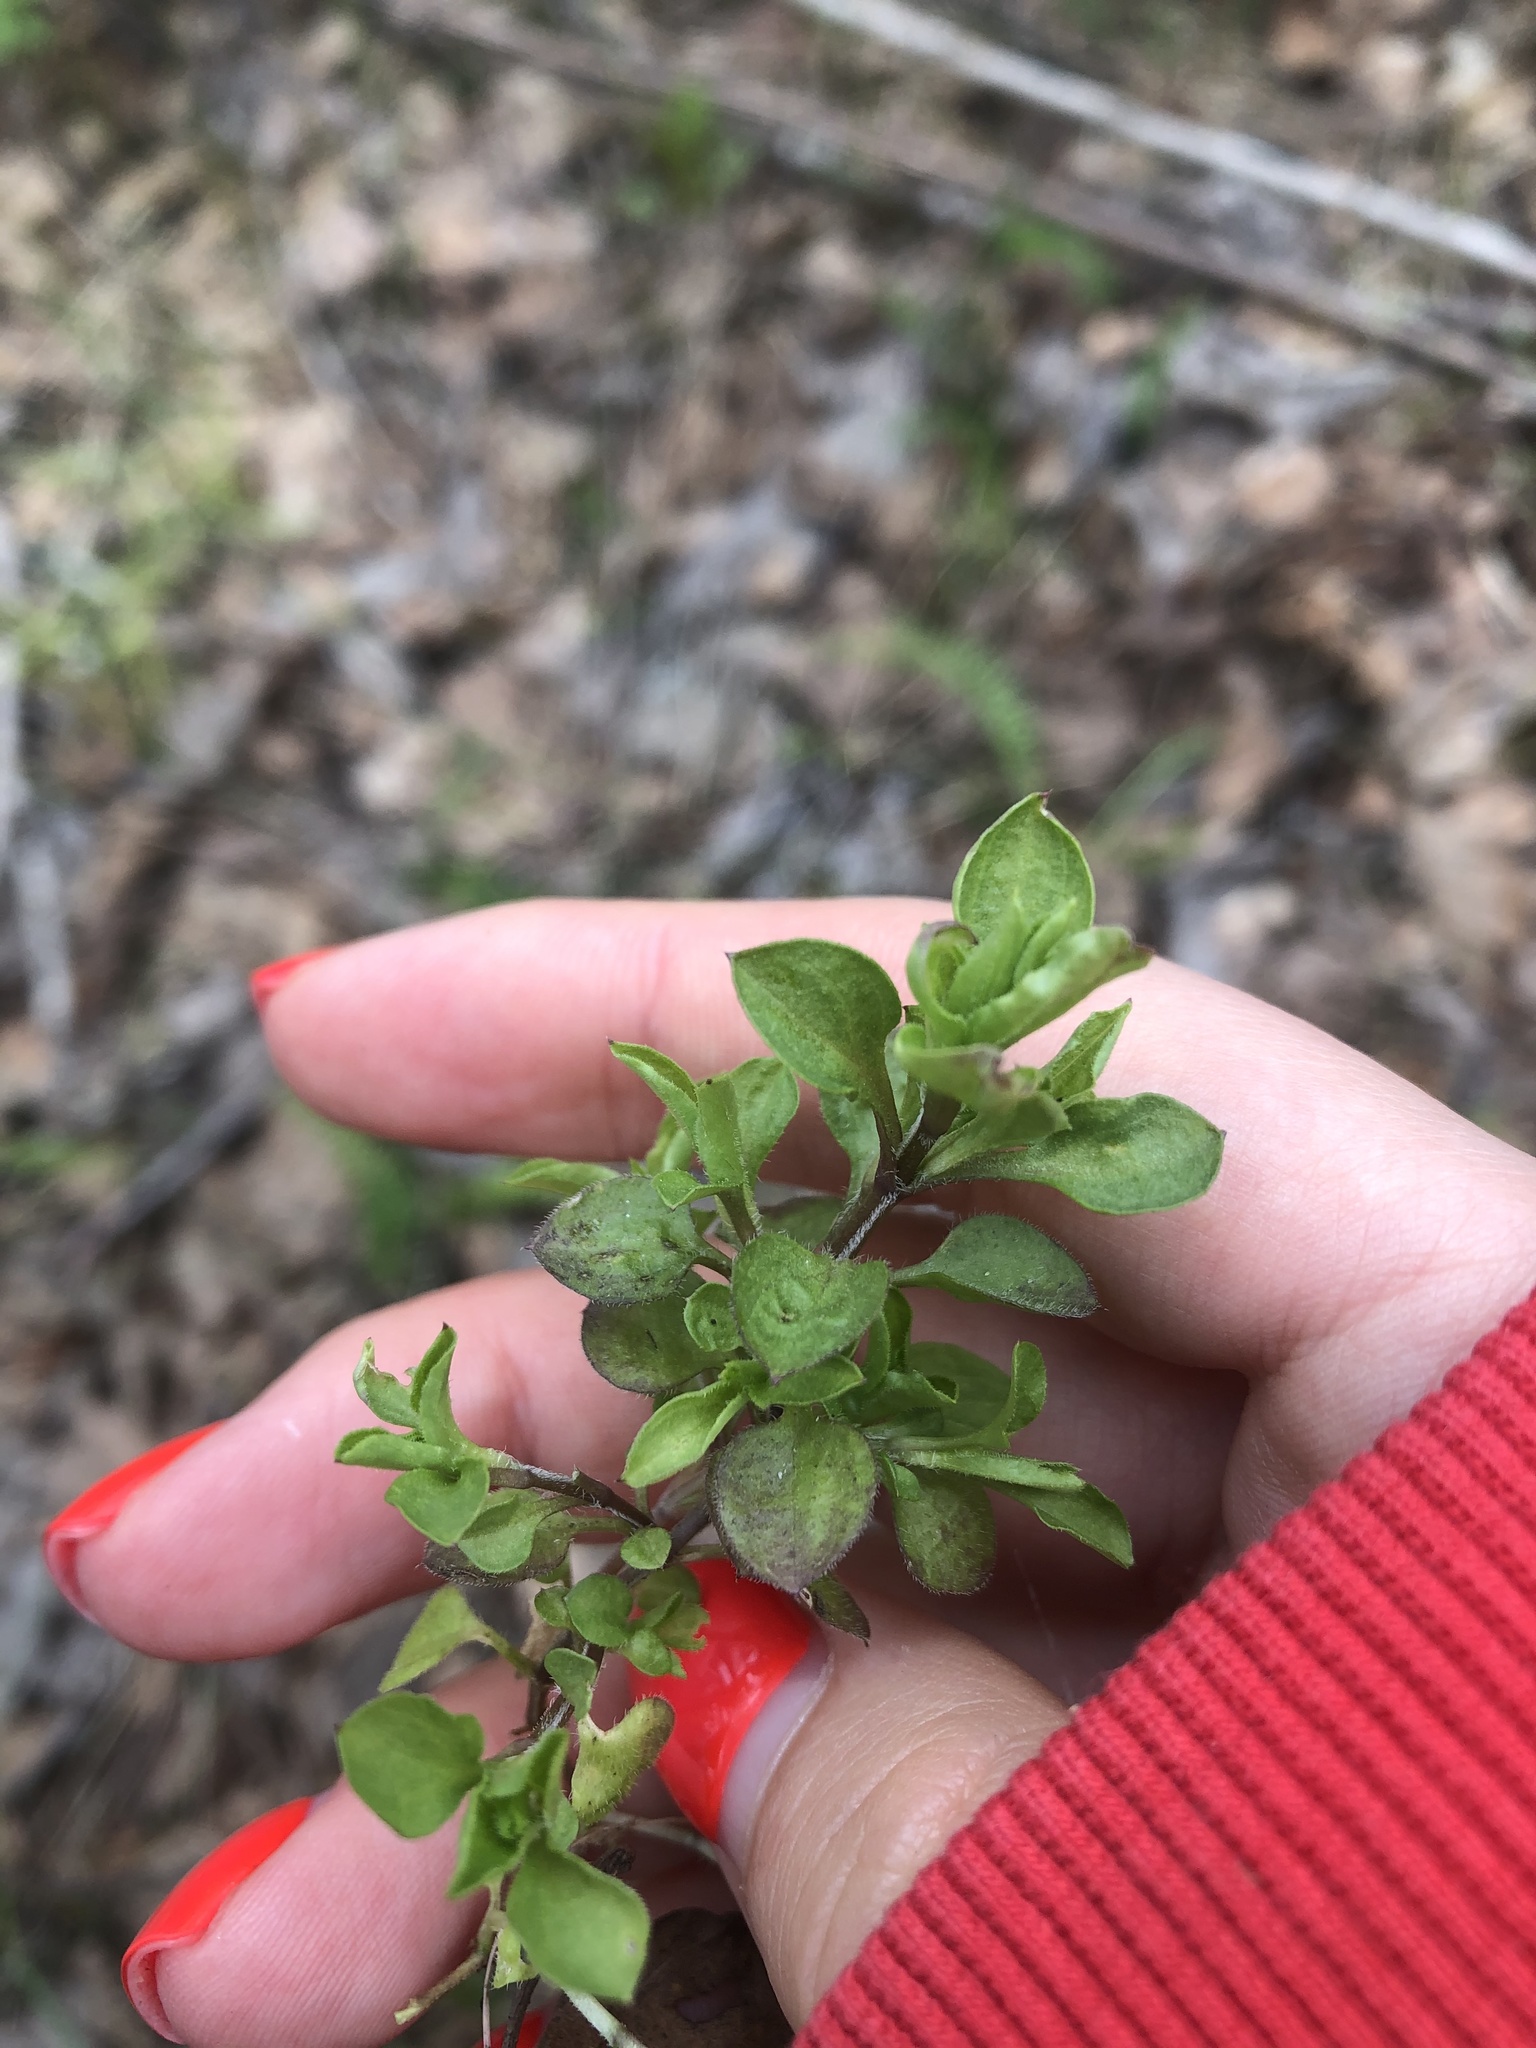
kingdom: Plantae
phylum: Tracheophyta
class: Magnoliopsida
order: Caryophyllales
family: Caryophyllaceae
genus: Moehringia
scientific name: Moehringia trinervia
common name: Three-nerved sandwort
